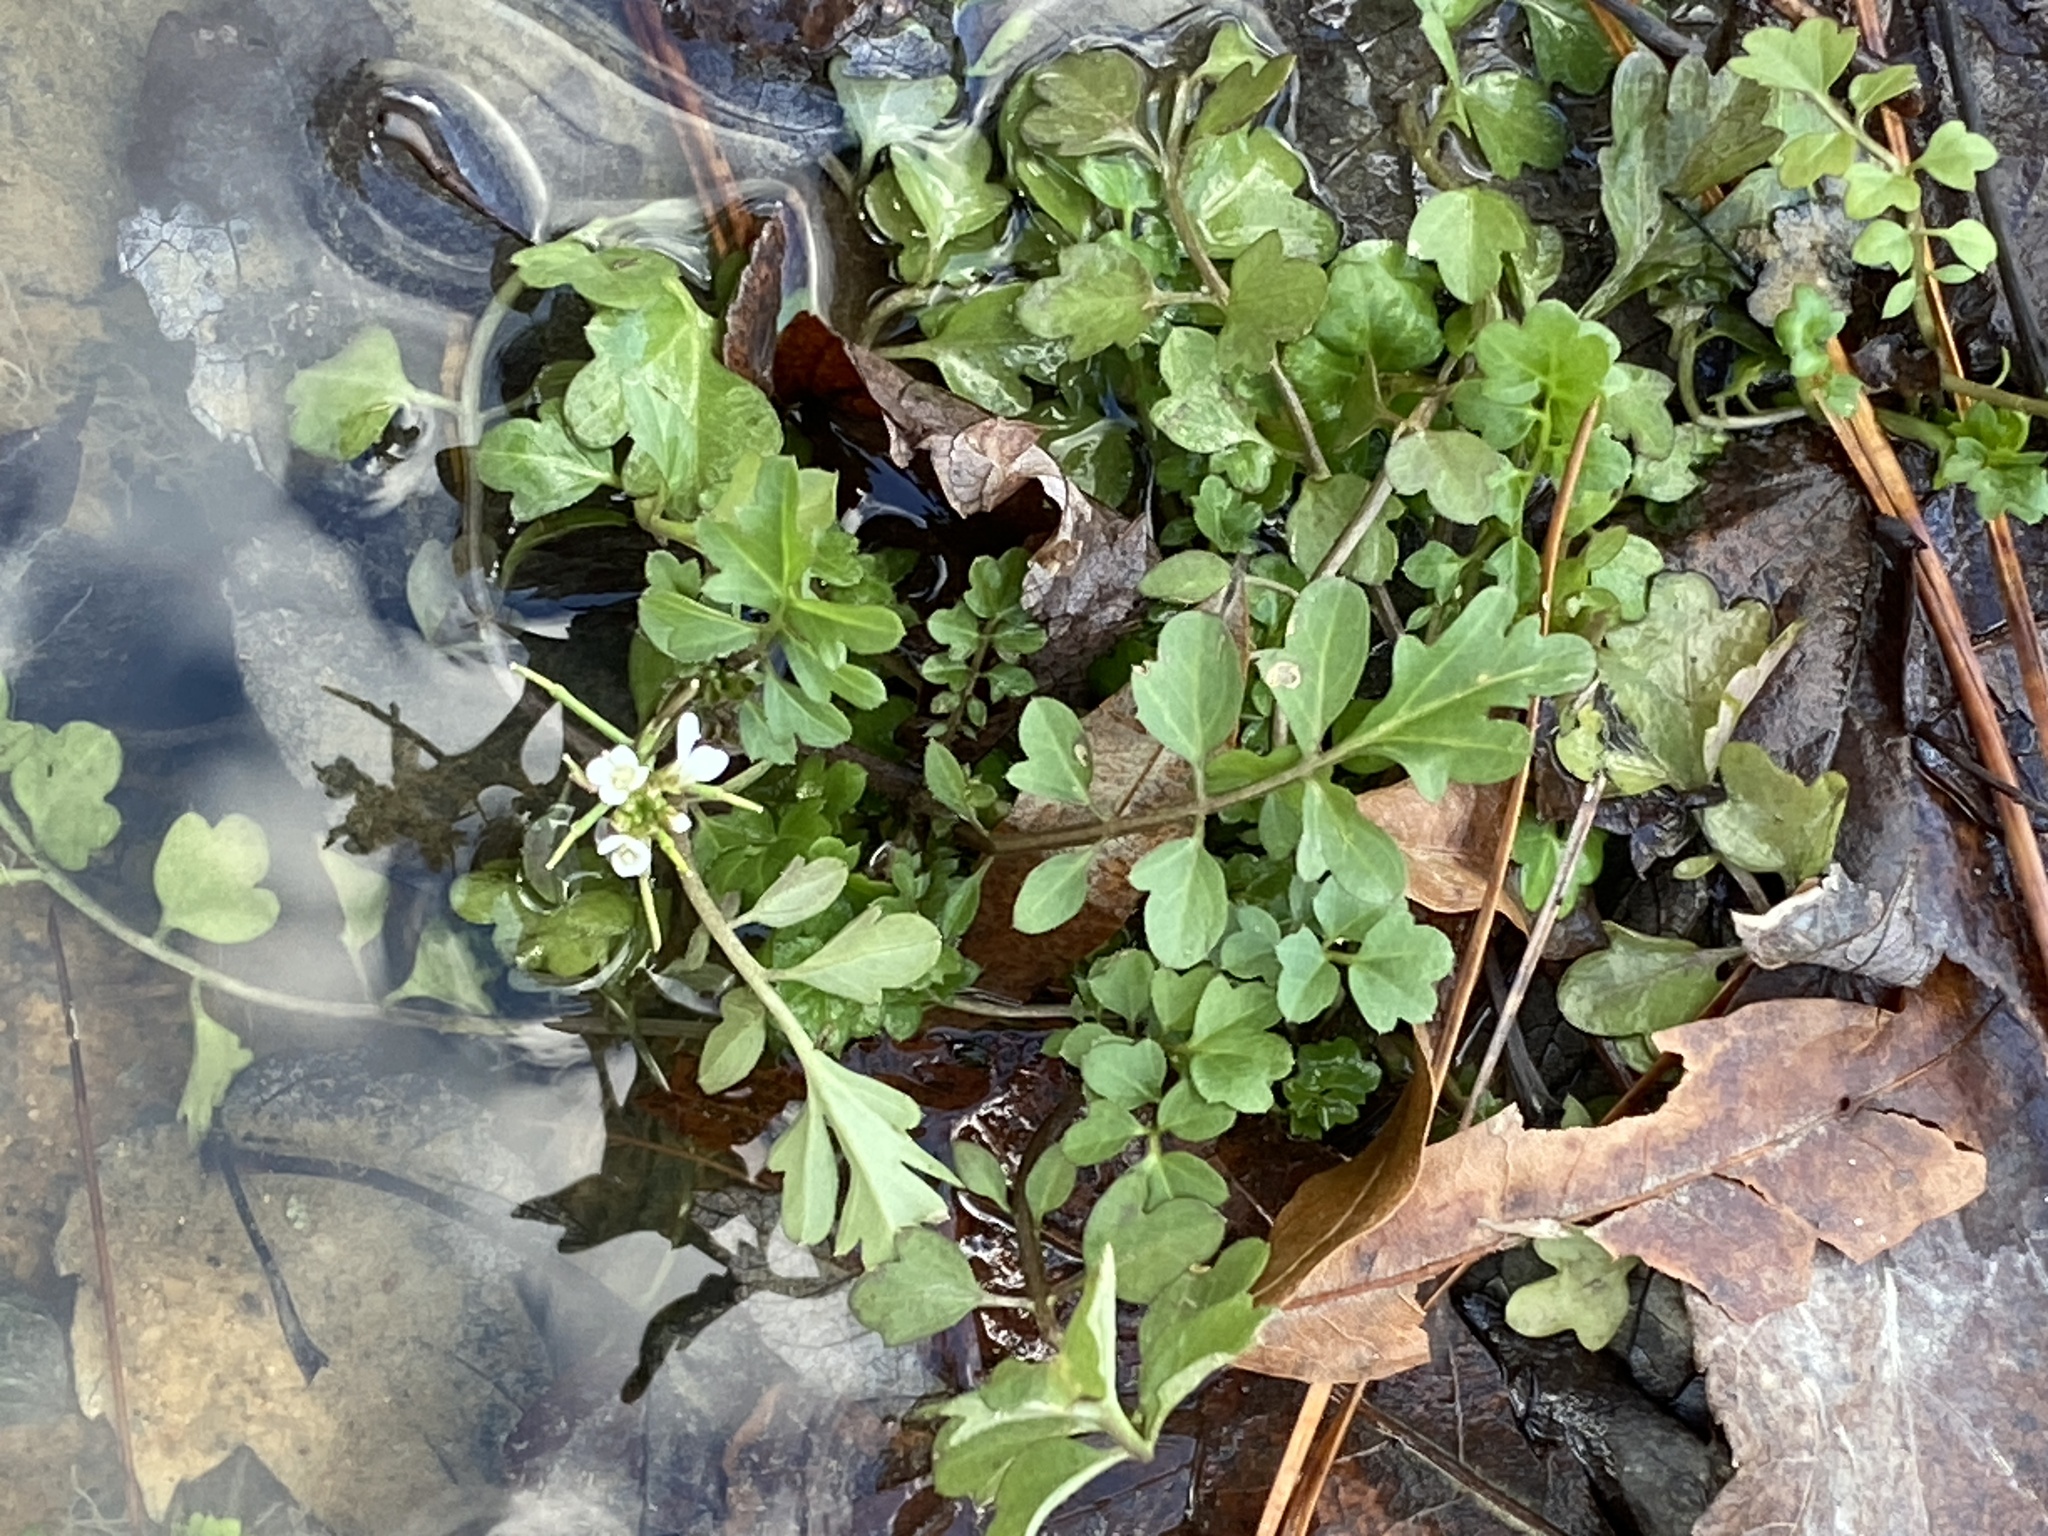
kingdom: Plantae
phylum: Tracheophyta
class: Magnoliopsida
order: Brassicales
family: Brassicaceae
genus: Cardamine
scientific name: Cardamine occulta
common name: Asian wavy bittercress
